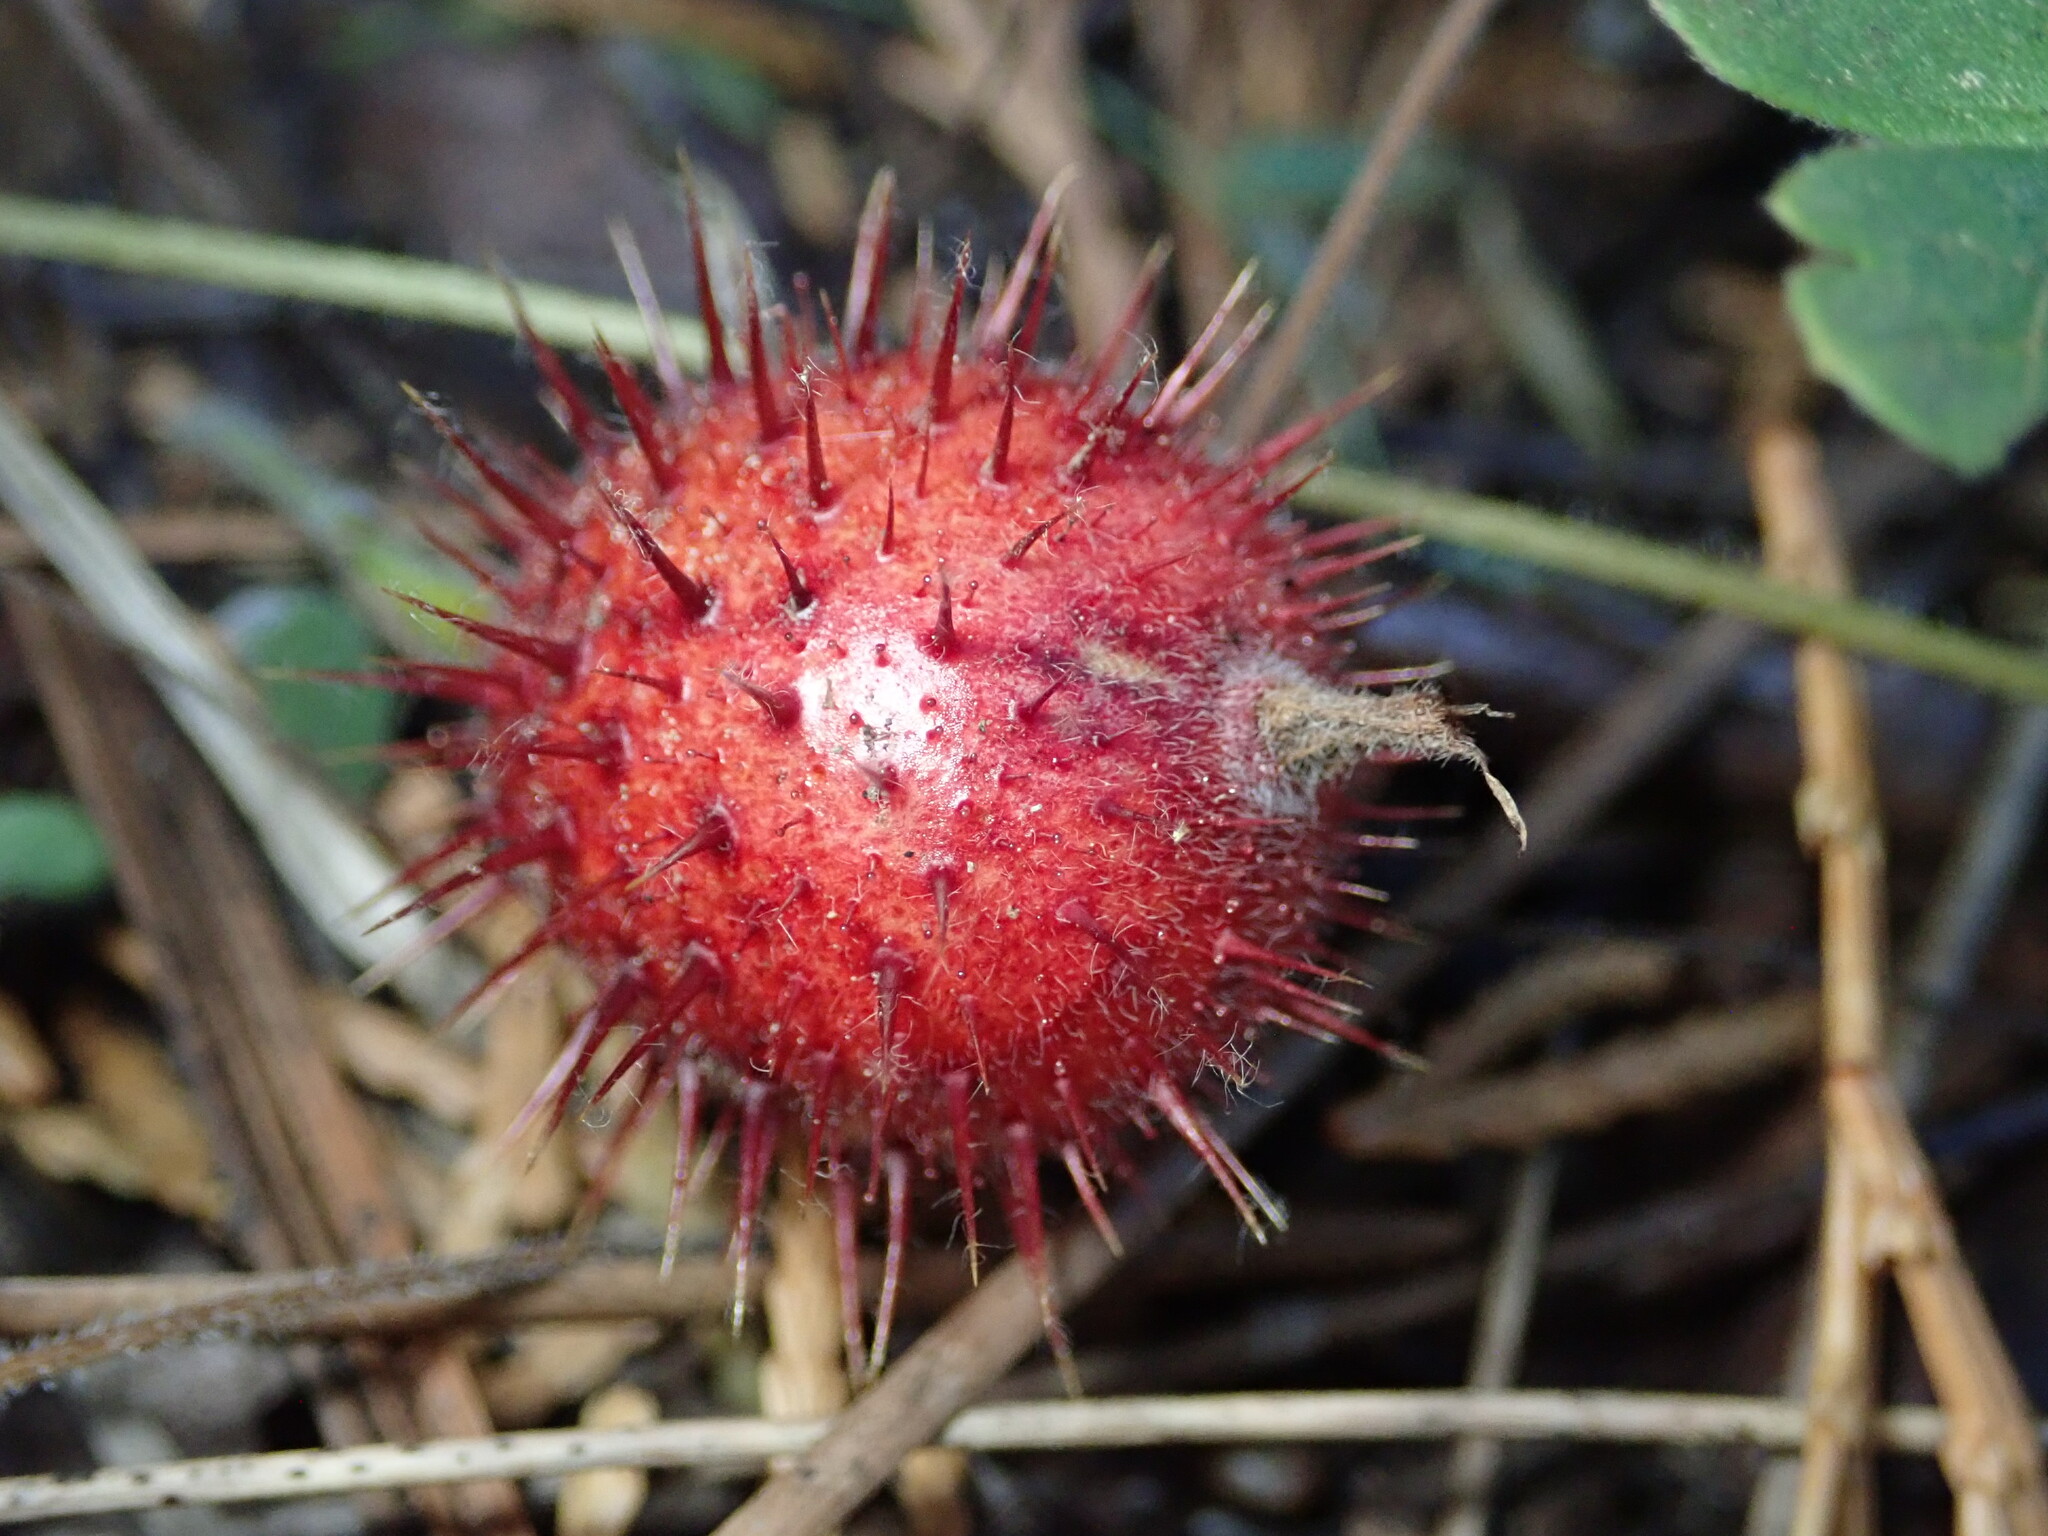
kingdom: Plantae
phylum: Tracheophyta
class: Magnoliopsida
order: Saxifragales
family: Grossulariaceae
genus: Ribes
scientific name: Ribes roezlii
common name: Sierra gooseberry
